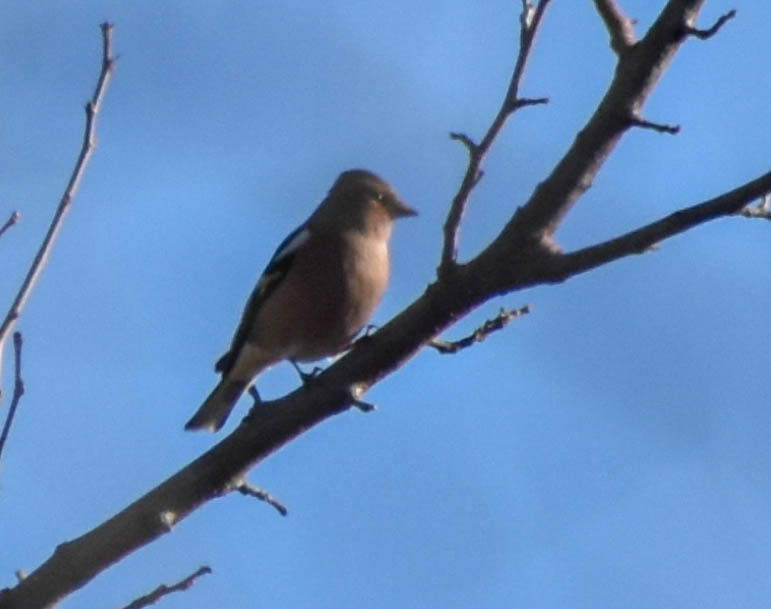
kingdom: Animalia
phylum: Chordata
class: Aves
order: Passeriformes
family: Fringillidae
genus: Fringilla
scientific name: Fringilla coelebs
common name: Common chaffinch
